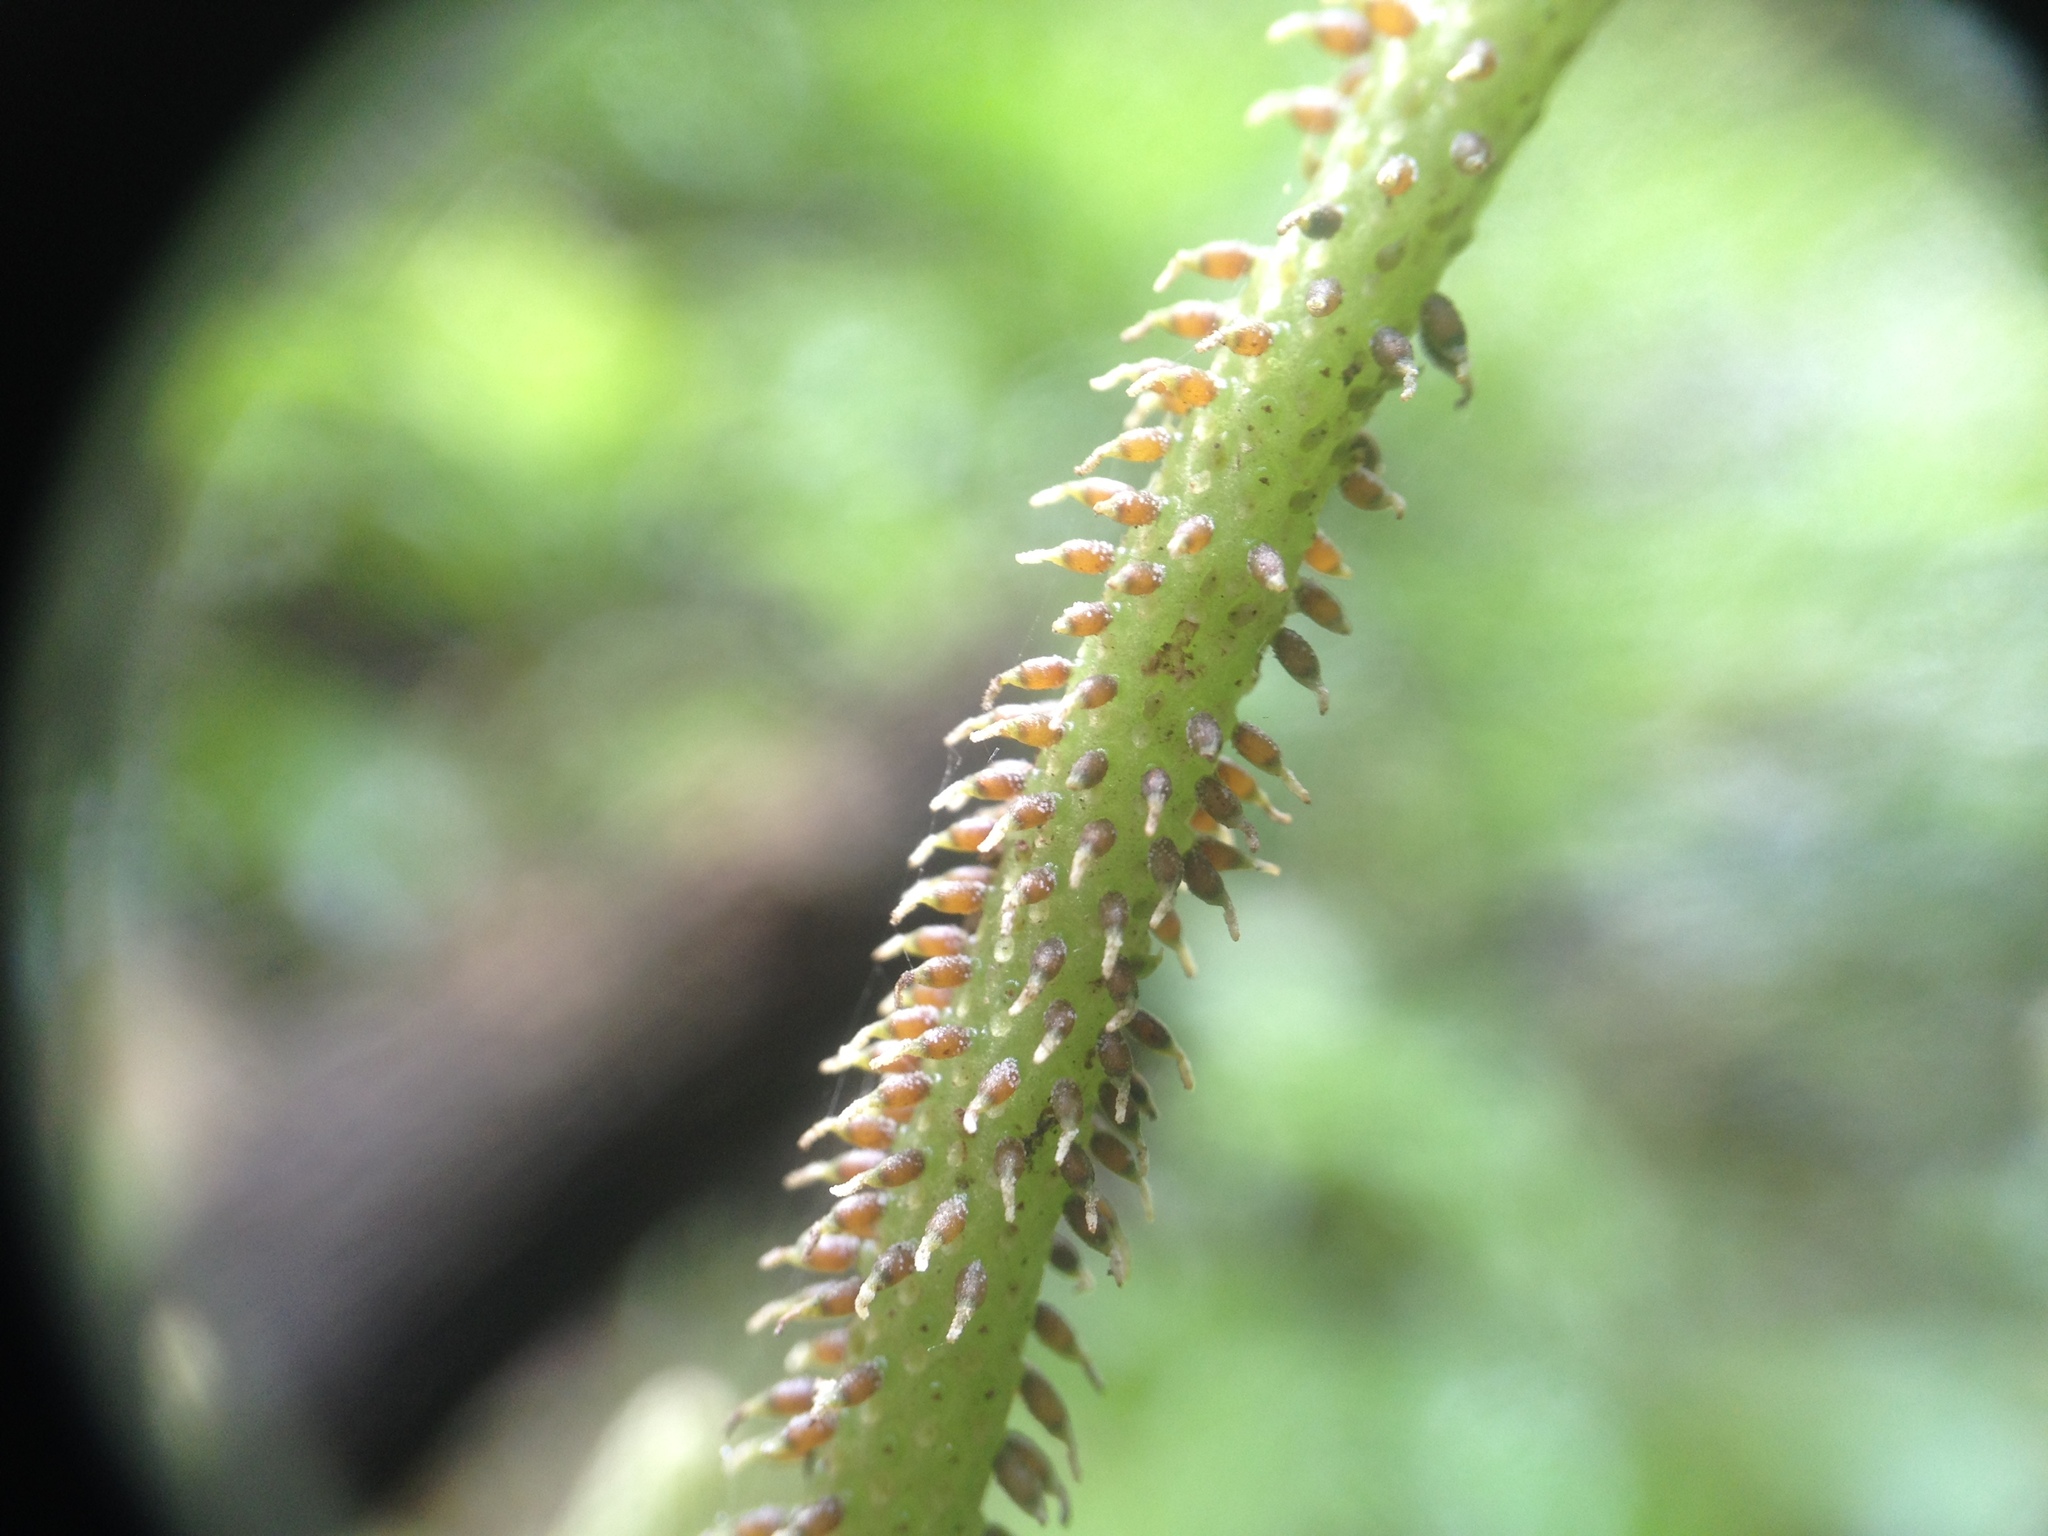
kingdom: Plantae
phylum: Tracheophyta
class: Magnoliopsida
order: Piperales
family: Piperaceae
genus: Peperomia
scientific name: Peperomia urocarpa
